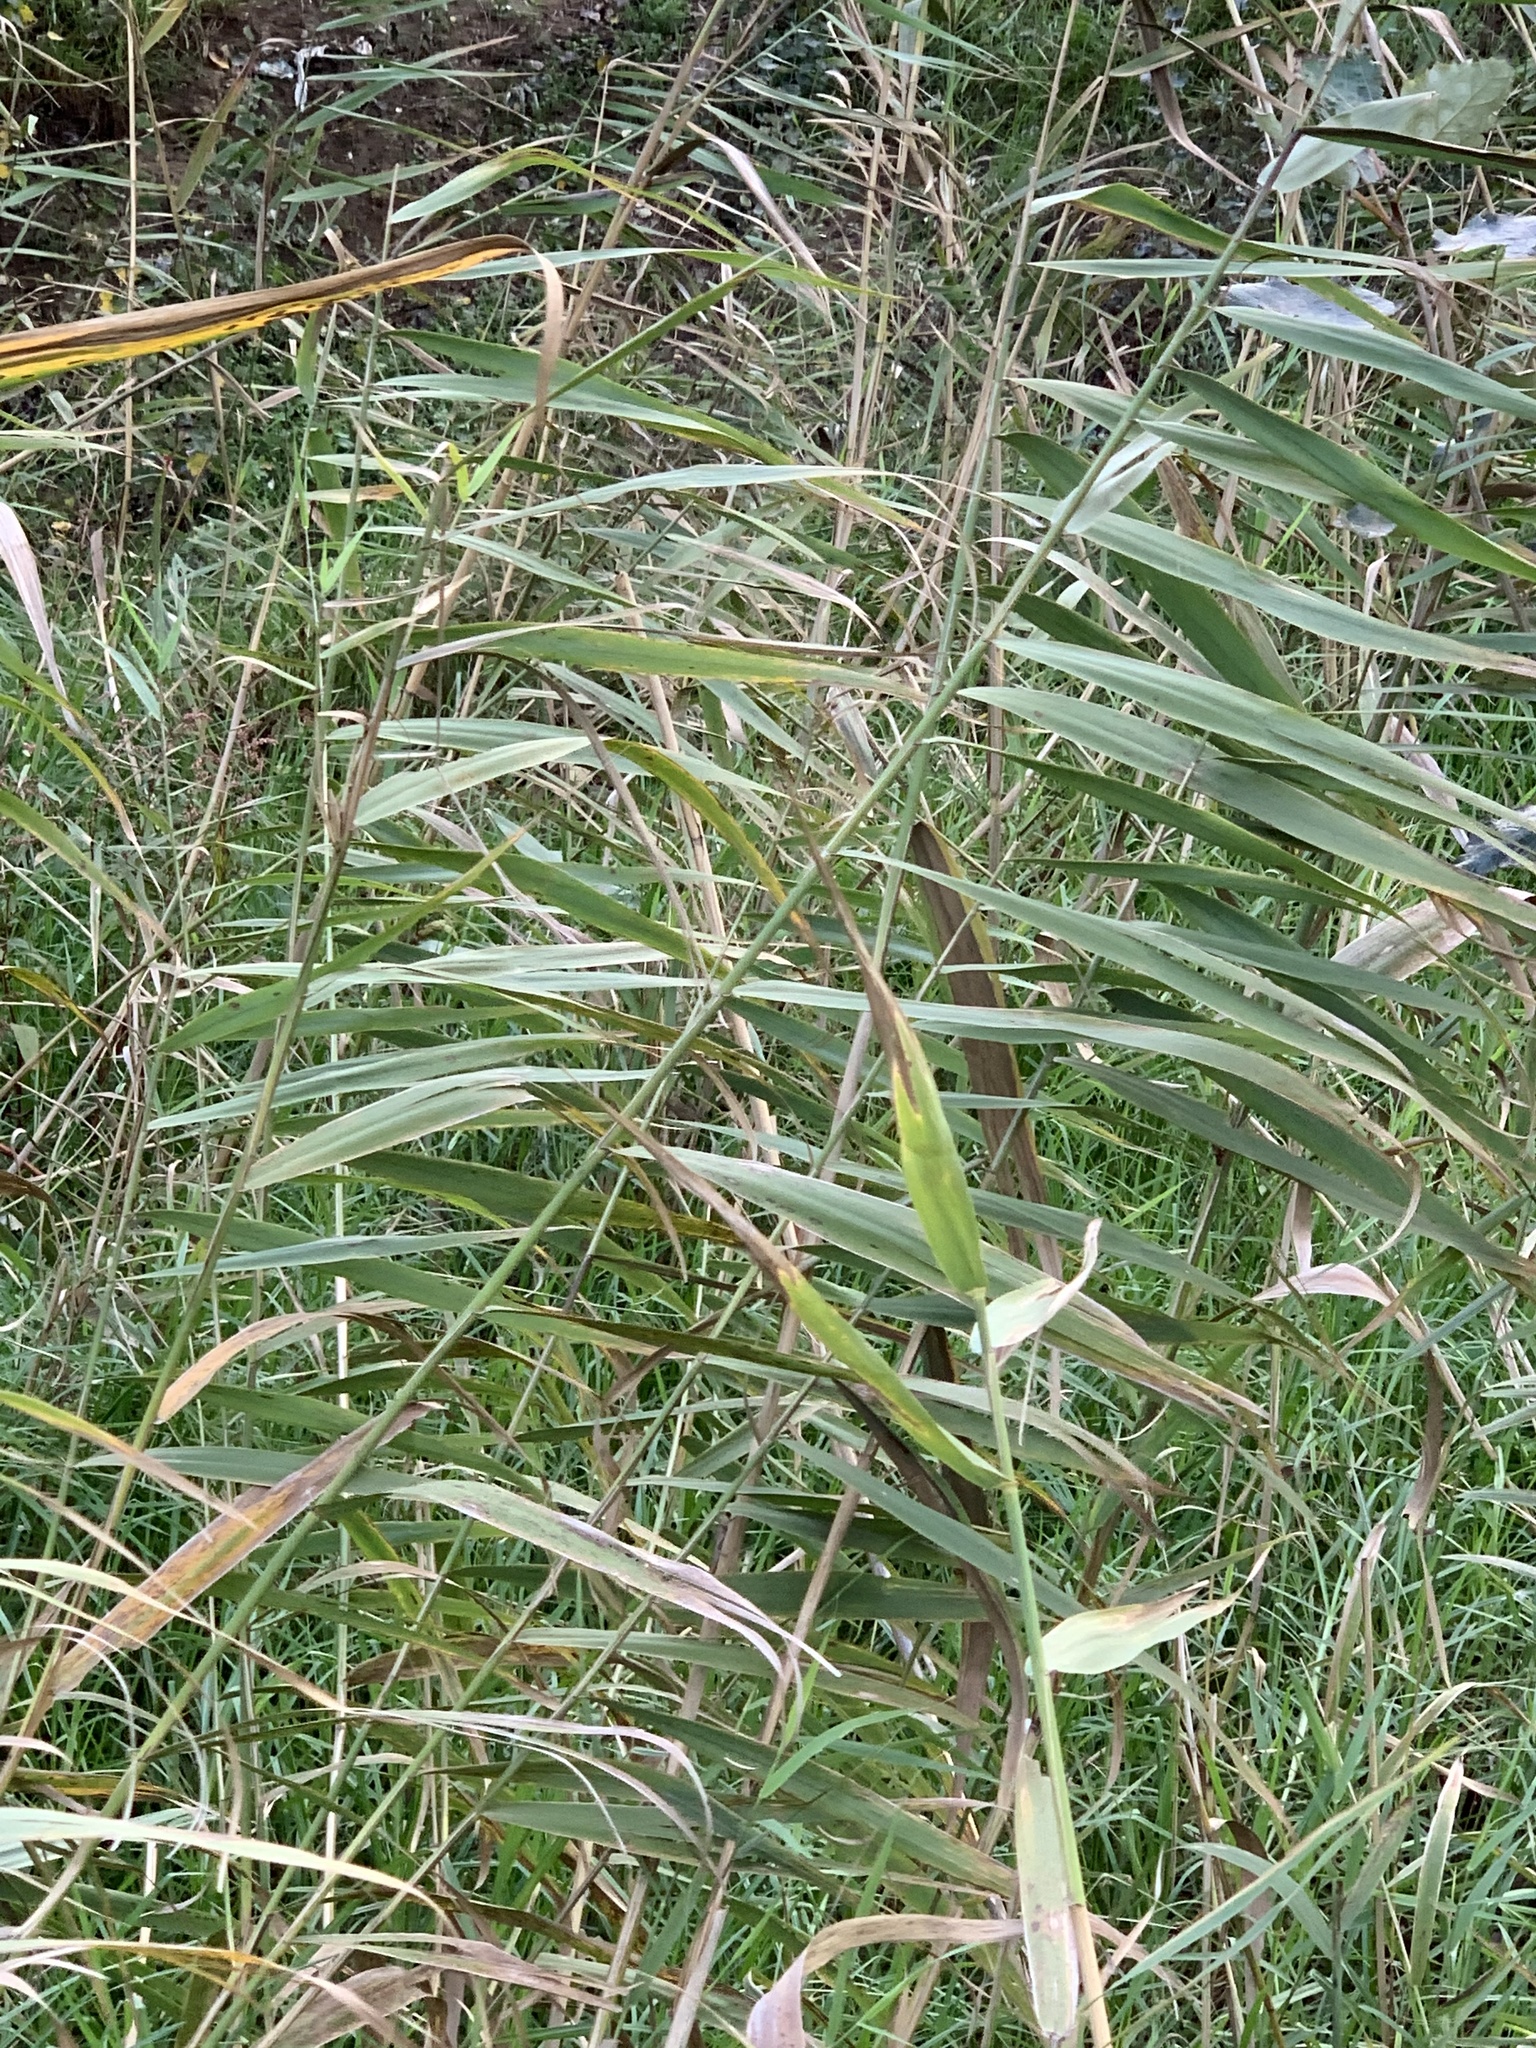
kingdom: Plantae
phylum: Tracheophyta
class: Liliopsida
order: Poales
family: Poaceae
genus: Phragmites
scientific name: Phragmites australis
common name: Common reed
